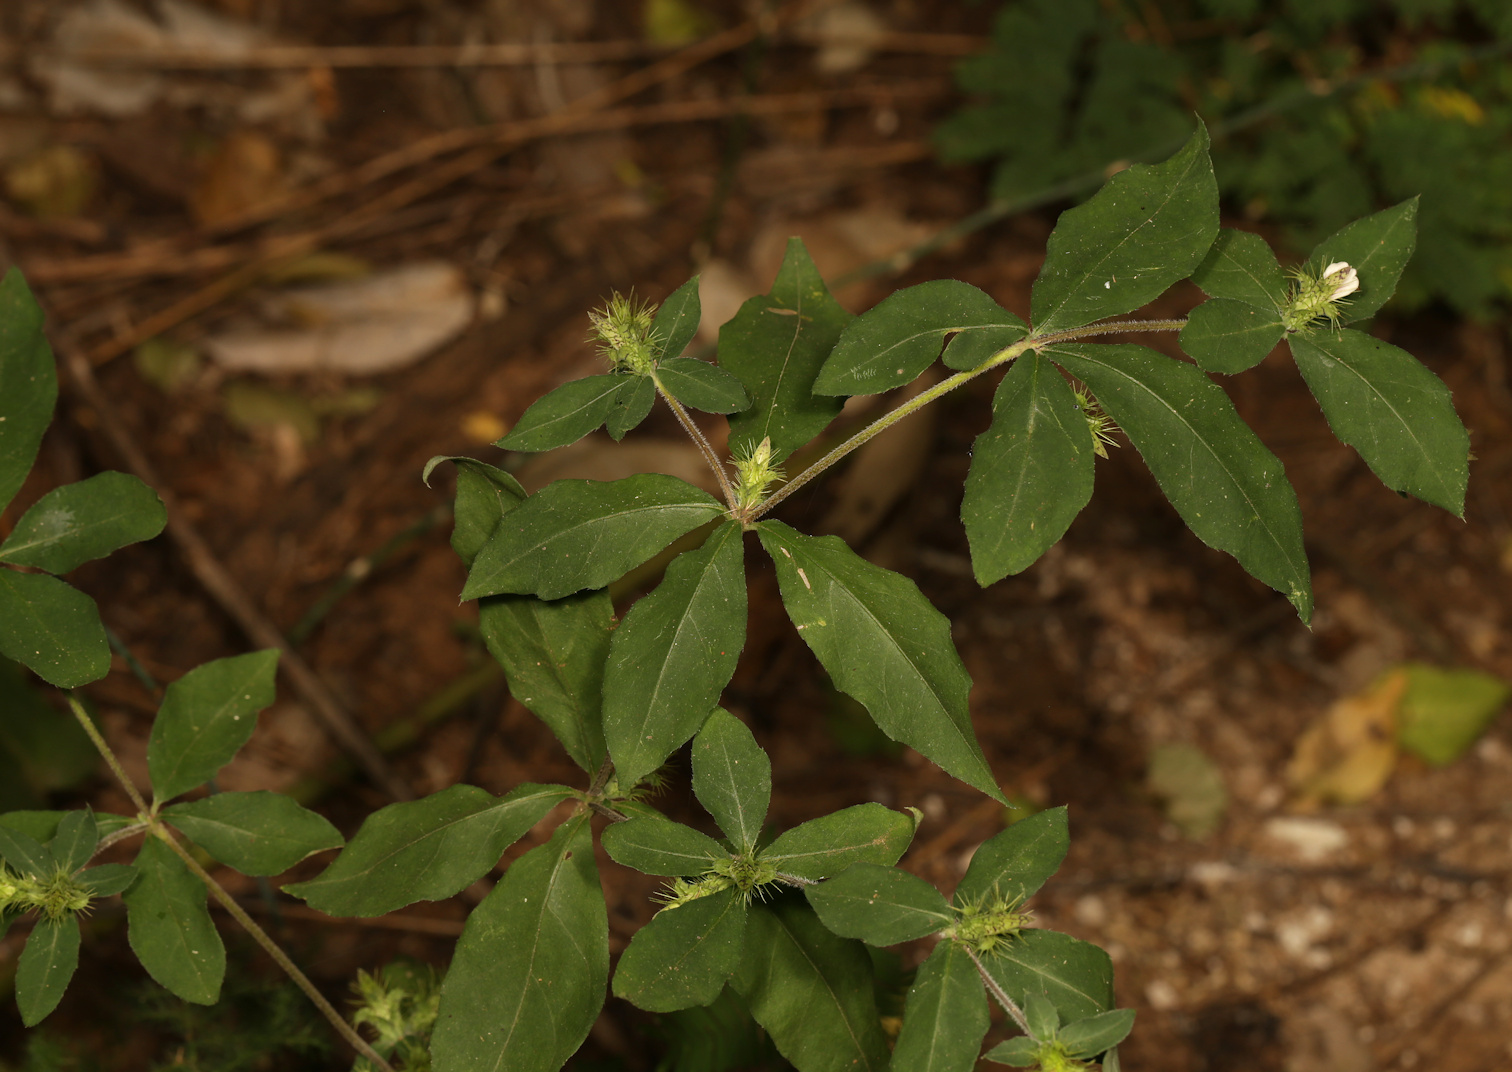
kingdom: Plantae
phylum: Tracheophyta
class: Magnoliopsida
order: Lamiales
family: Acanthaceae
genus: Blepharis
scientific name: Blepharis maderaspatensis
